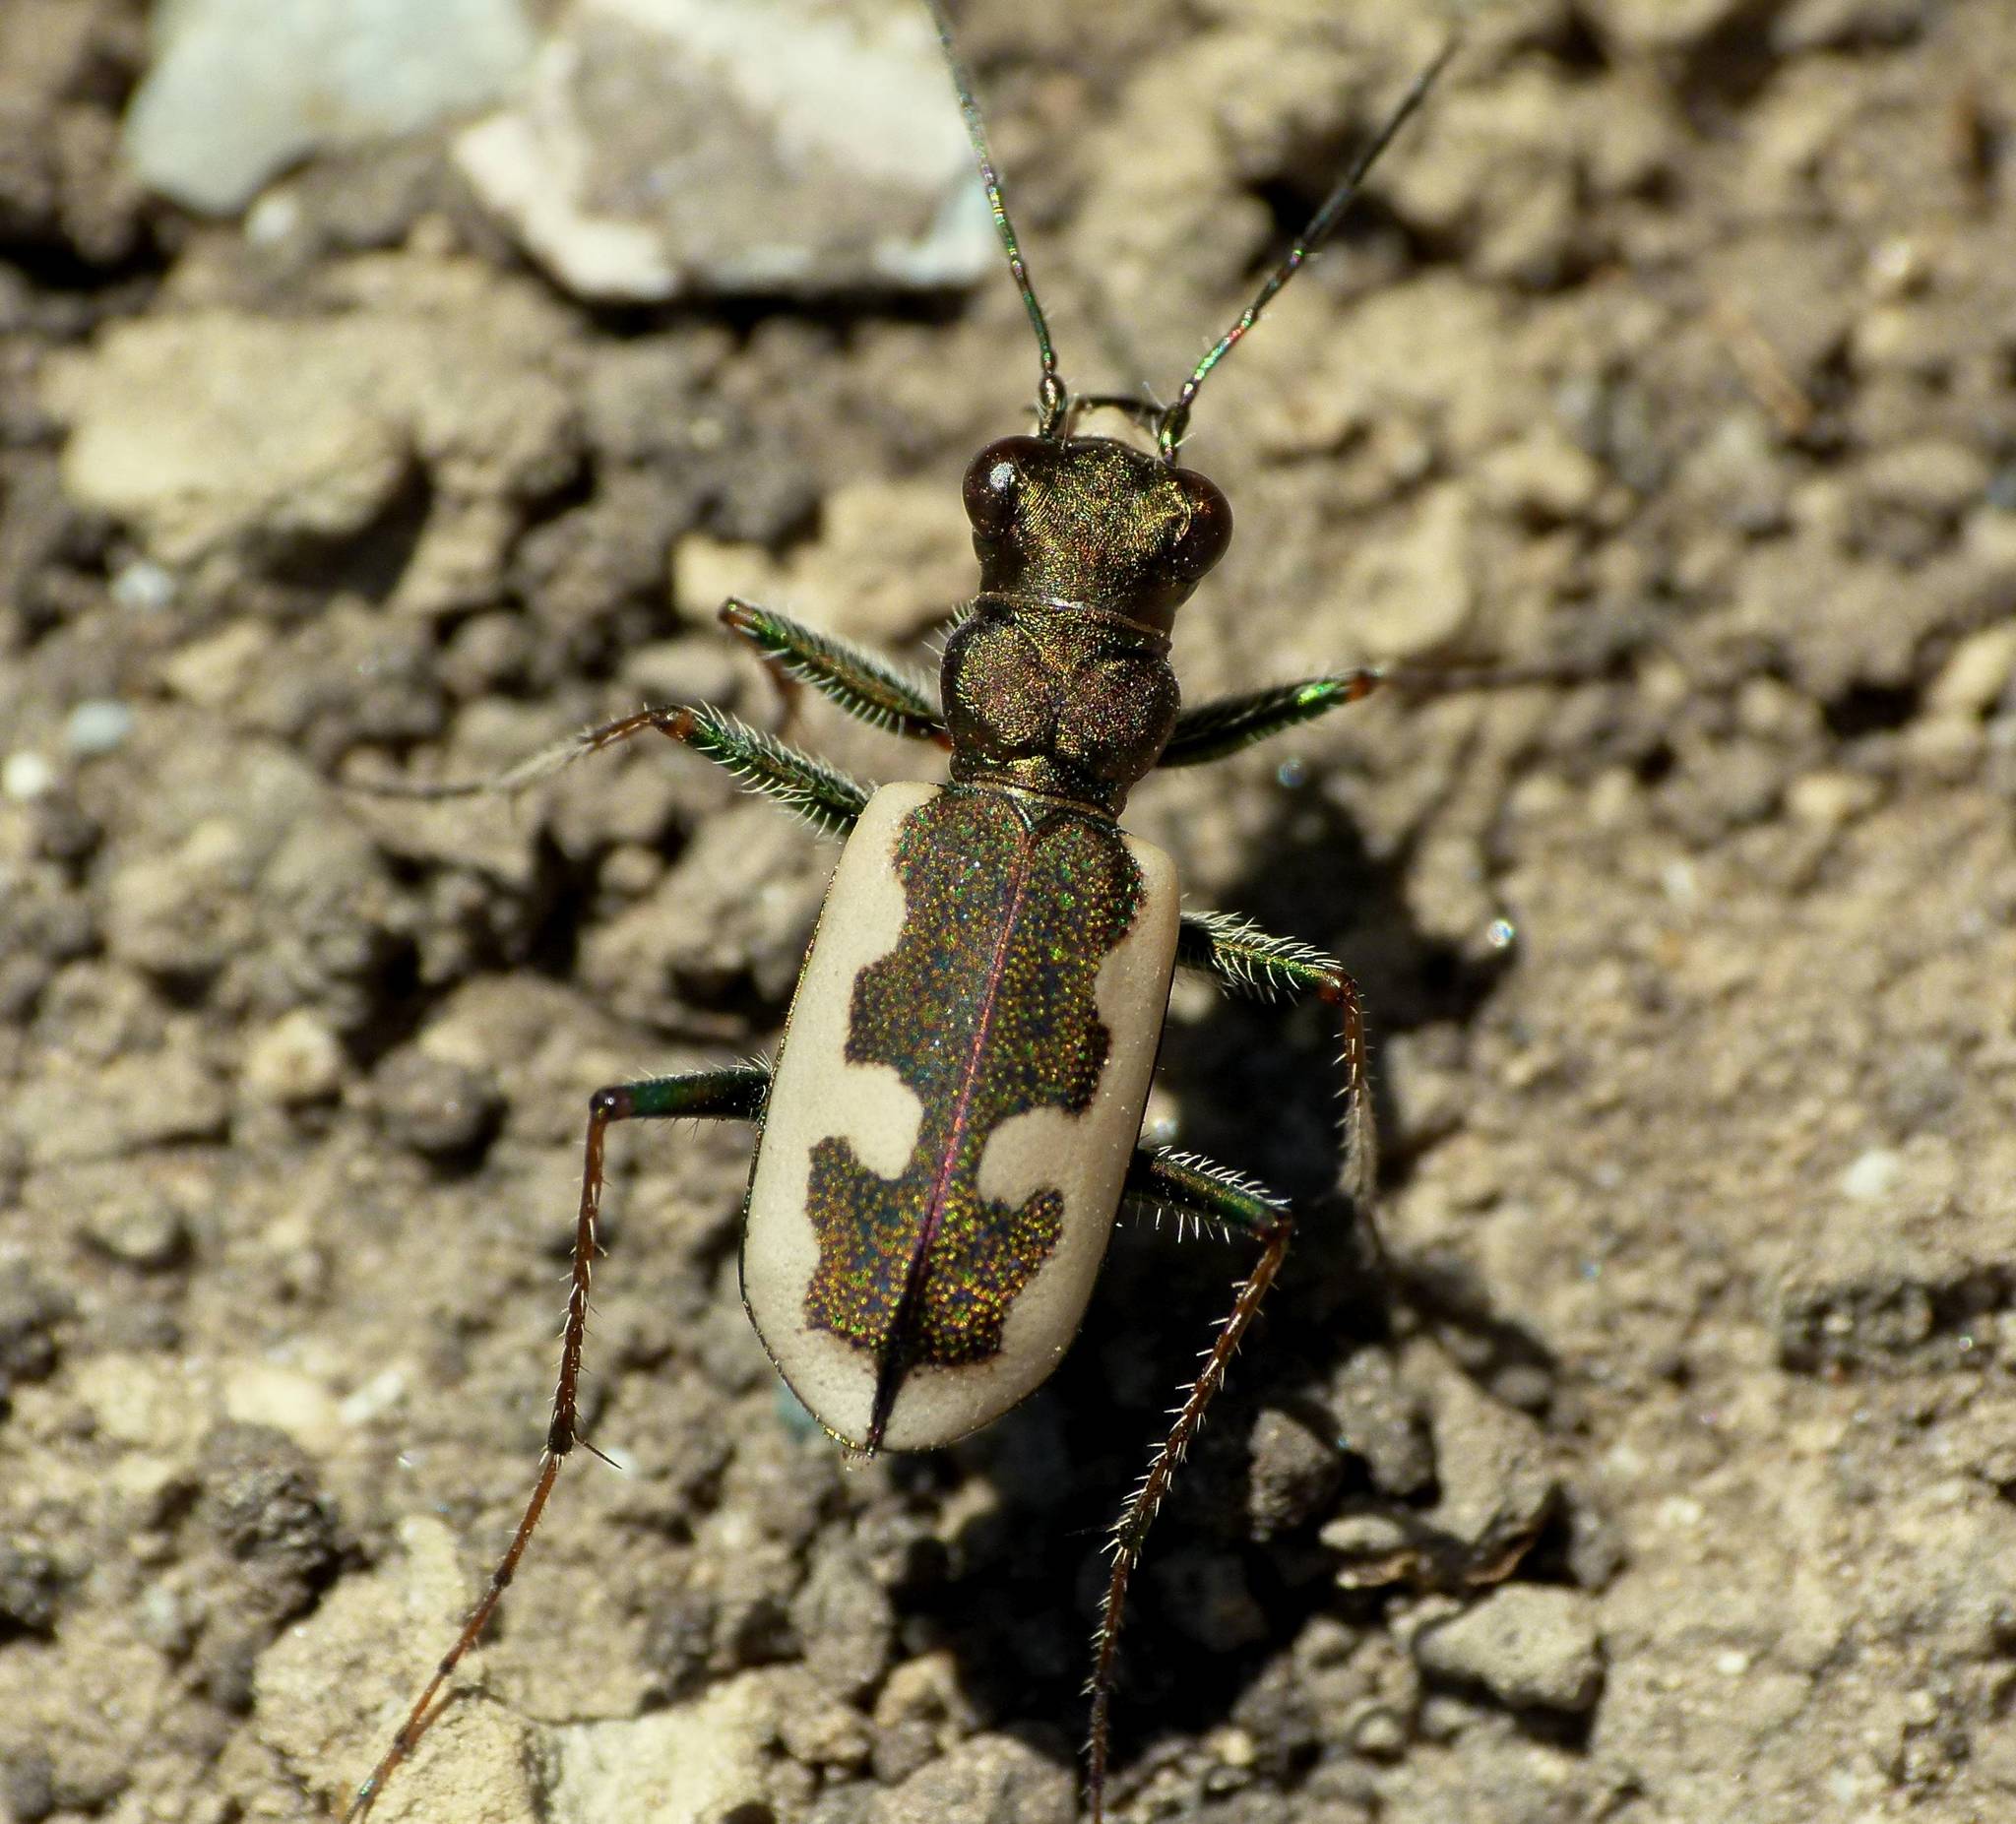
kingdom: Animalia
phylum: Arthropoda
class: Insecta
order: Coleoptera
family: Carabidae
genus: Neocicindela
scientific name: Neocicindela latecincta
